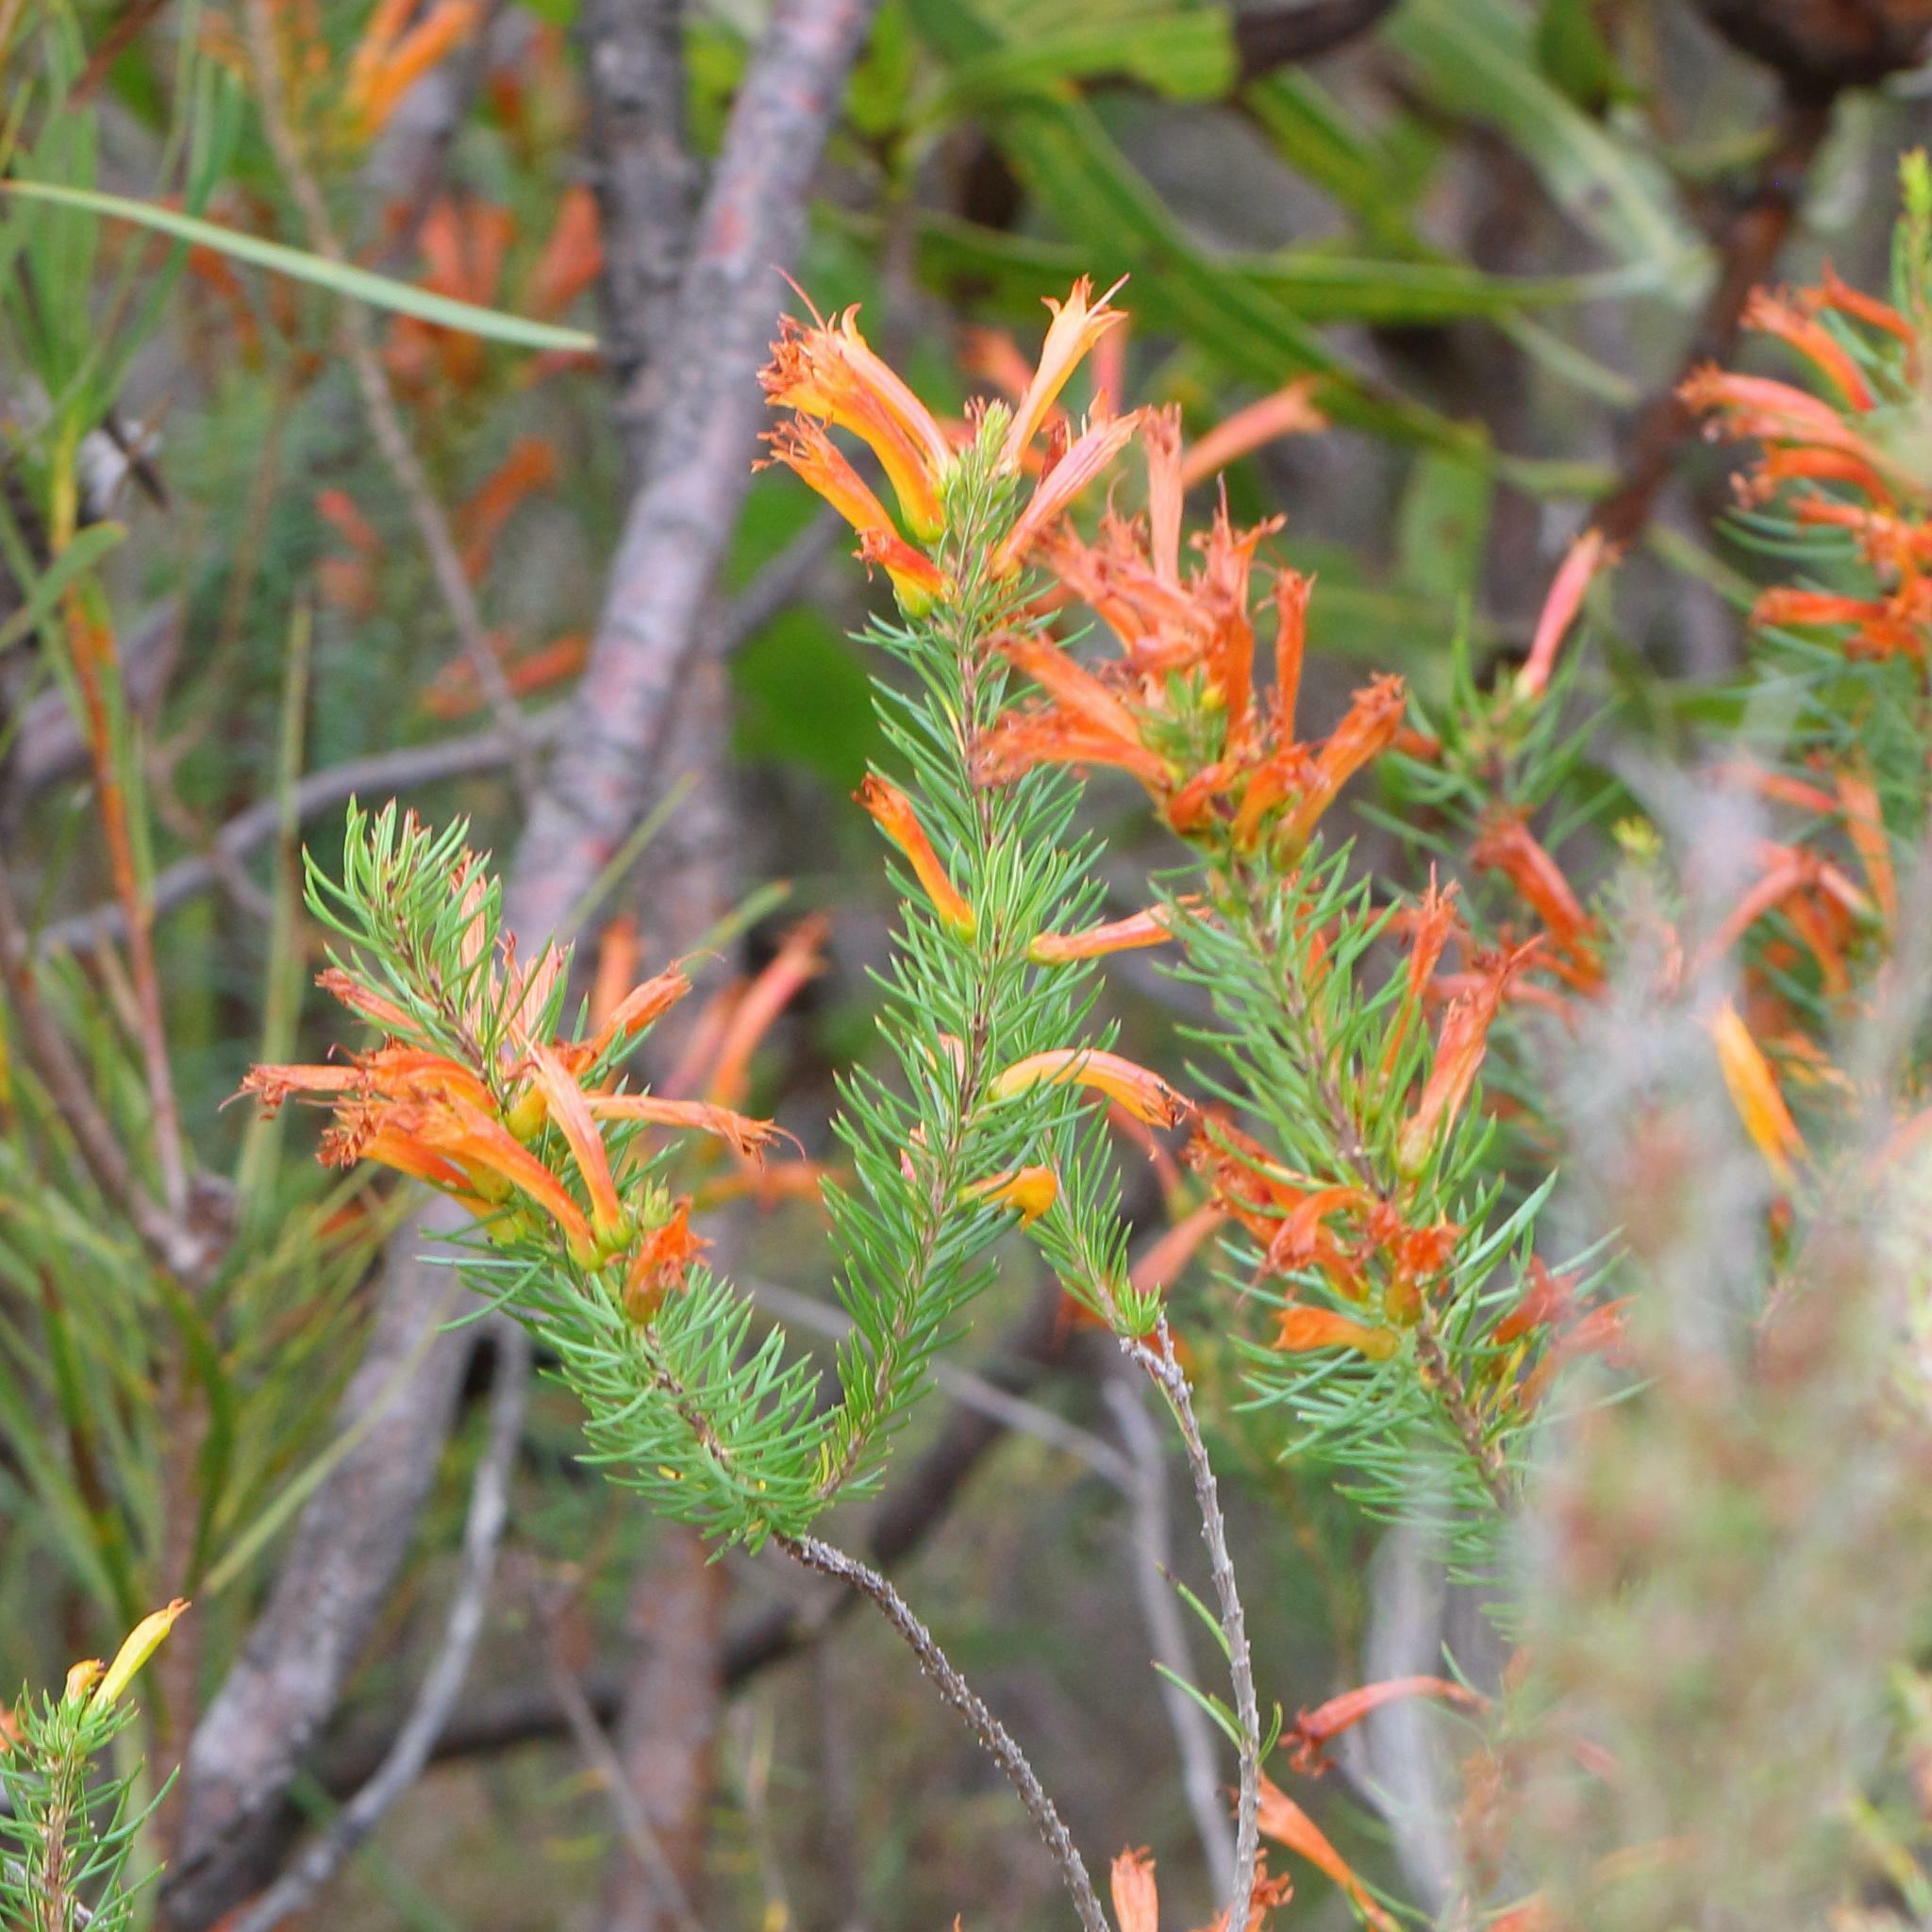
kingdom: Plantae
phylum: Tracheophyta
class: Magnoliopsida
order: Ericales
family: Ericaceae
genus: Erica
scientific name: Erica grandiflora
